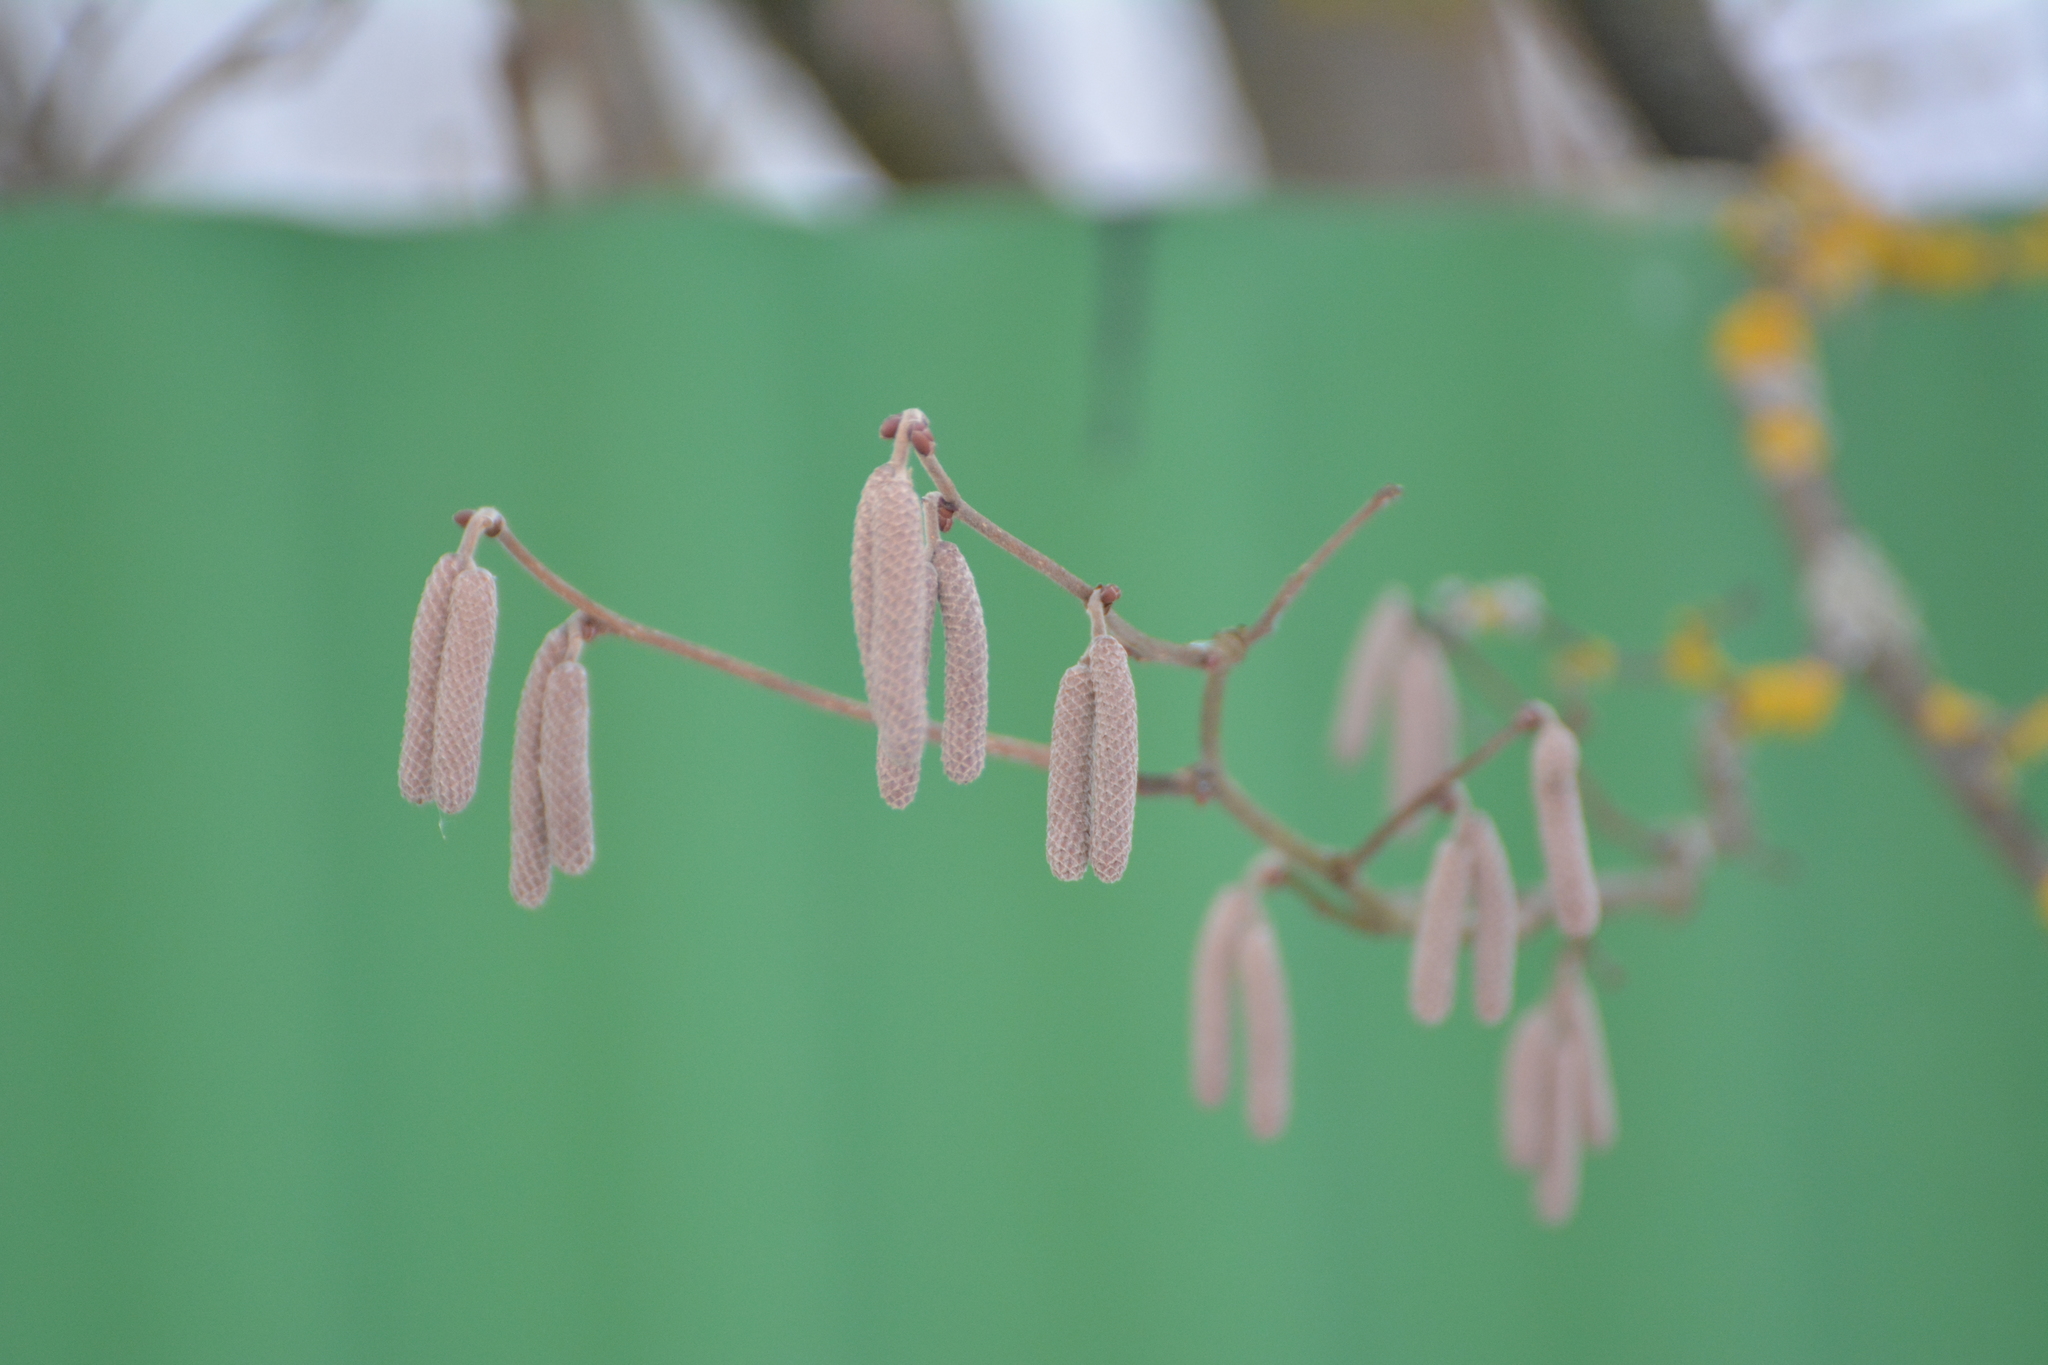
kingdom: Plantae
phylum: Tracheophyta
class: Magnoliopsida
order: Fagales
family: Betulaceae
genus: Corylus
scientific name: Corylus avellana
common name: European hazel
